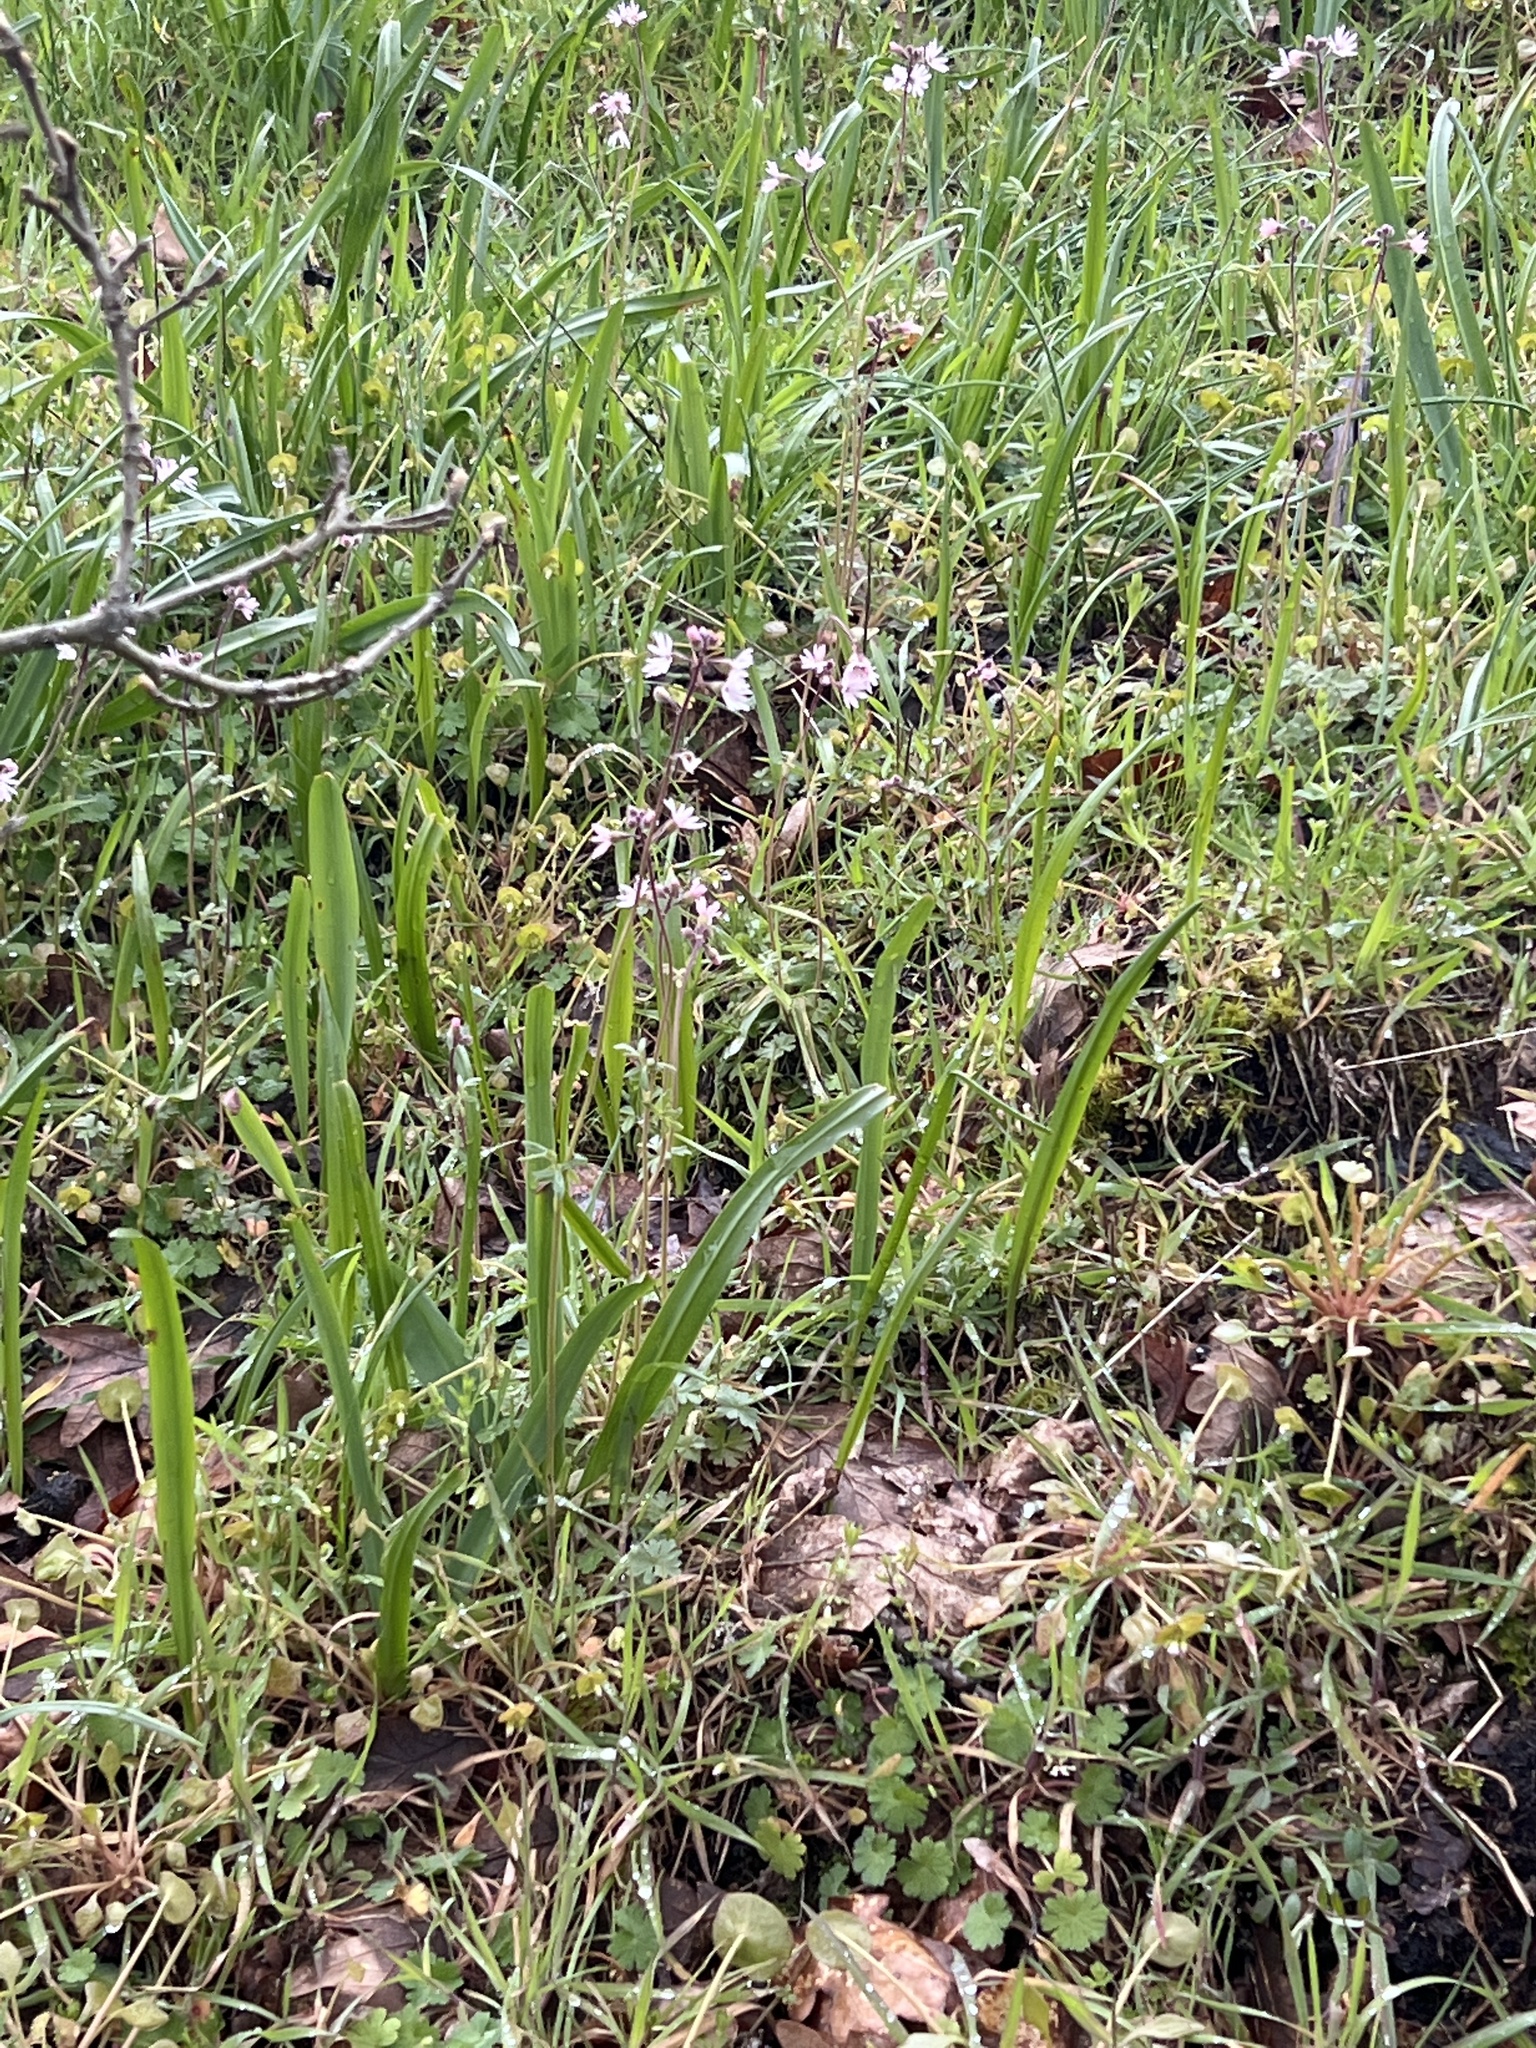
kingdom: Plantae
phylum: Tracheophyta
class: Magnoliopsida
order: Saxifragales
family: Saxifragaceae
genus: Lithophragma
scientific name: Lithophragma parviflorum
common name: Small-flowered fringe-cup
